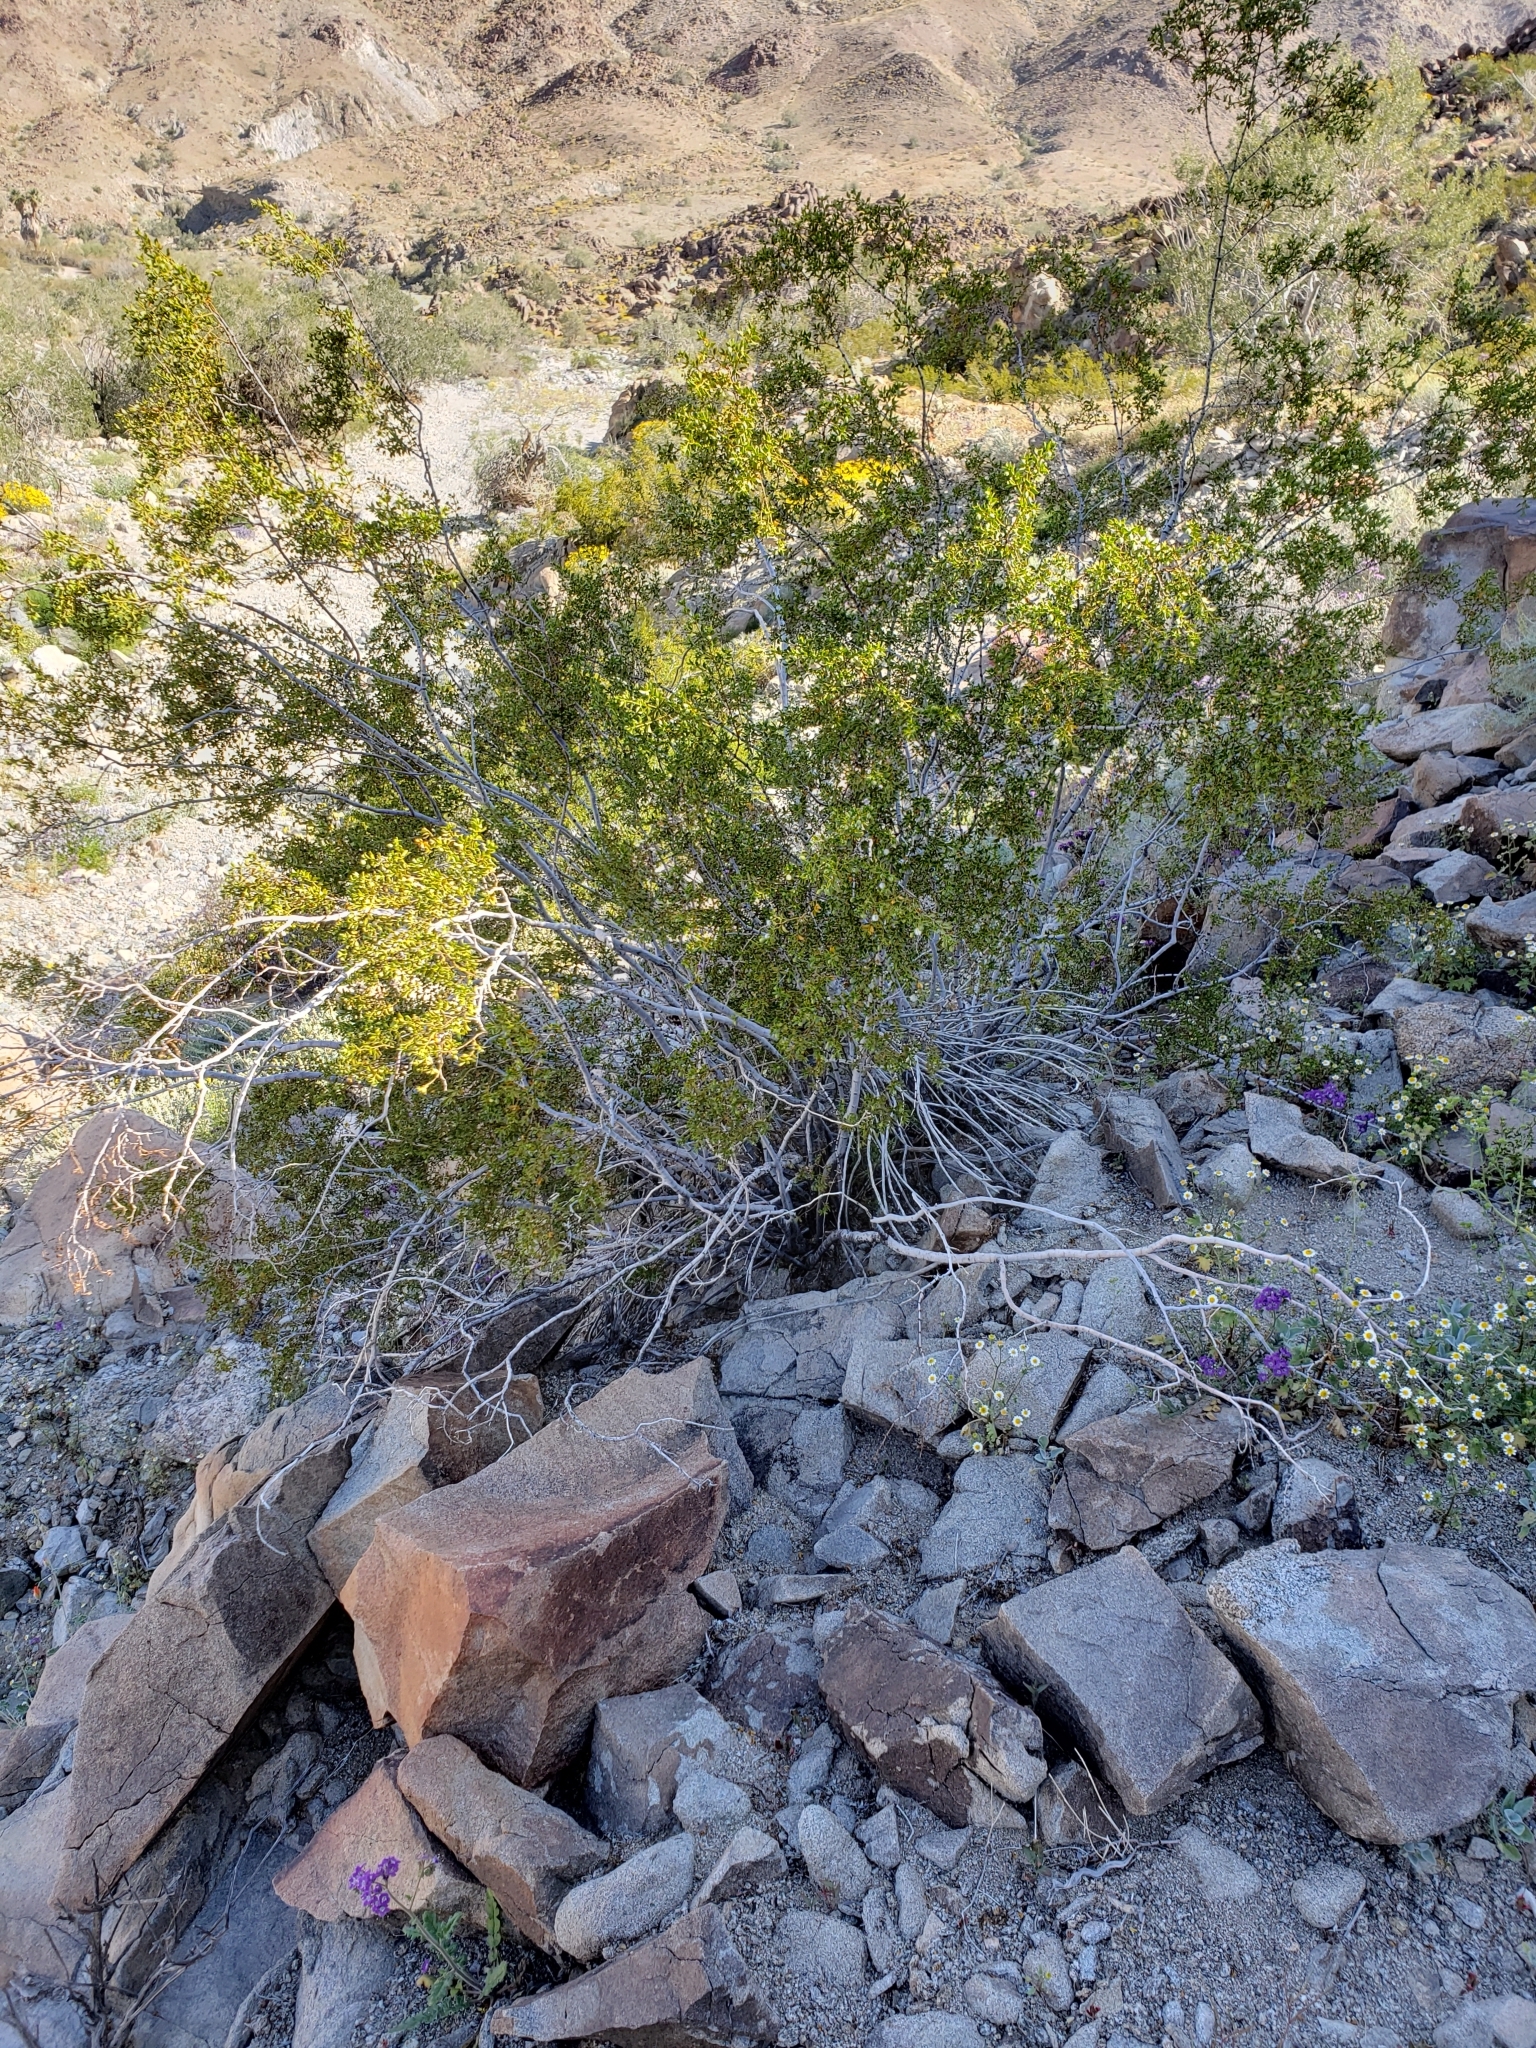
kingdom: Plantae
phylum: Tracheophyta
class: Magnoliopsida
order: Zygophyllales
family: Zygophyllaceae
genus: Larrea
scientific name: Larrea tridentata
